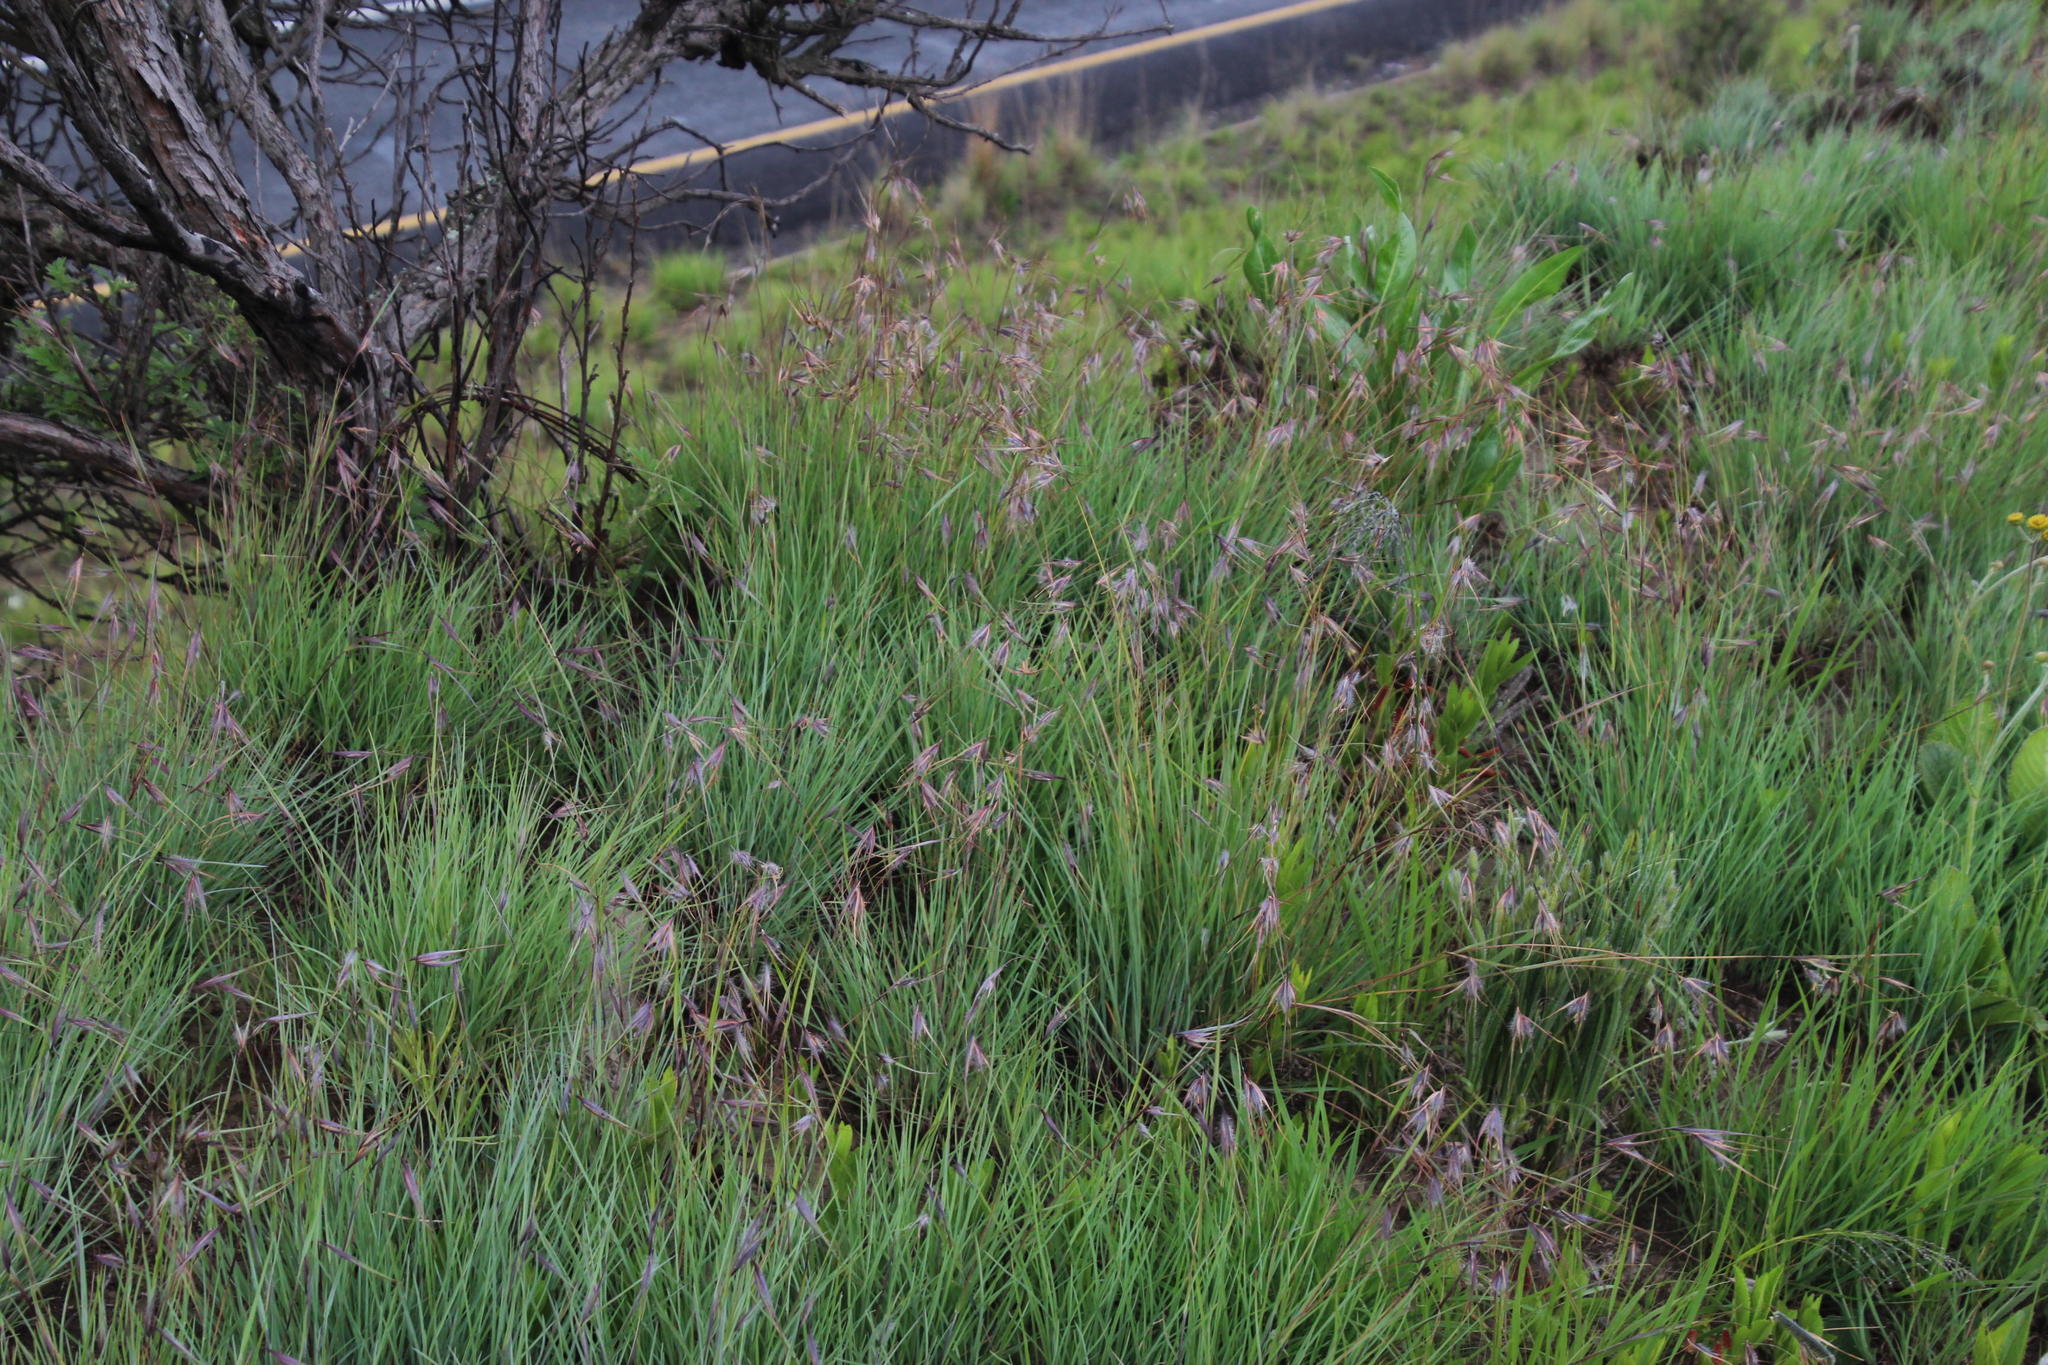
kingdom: Plantae
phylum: Tracheophyta
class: Liliopsida
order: Poales
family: Poaceae
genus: Themeda
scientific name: Themeda triandra
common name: Kangaroo grass
